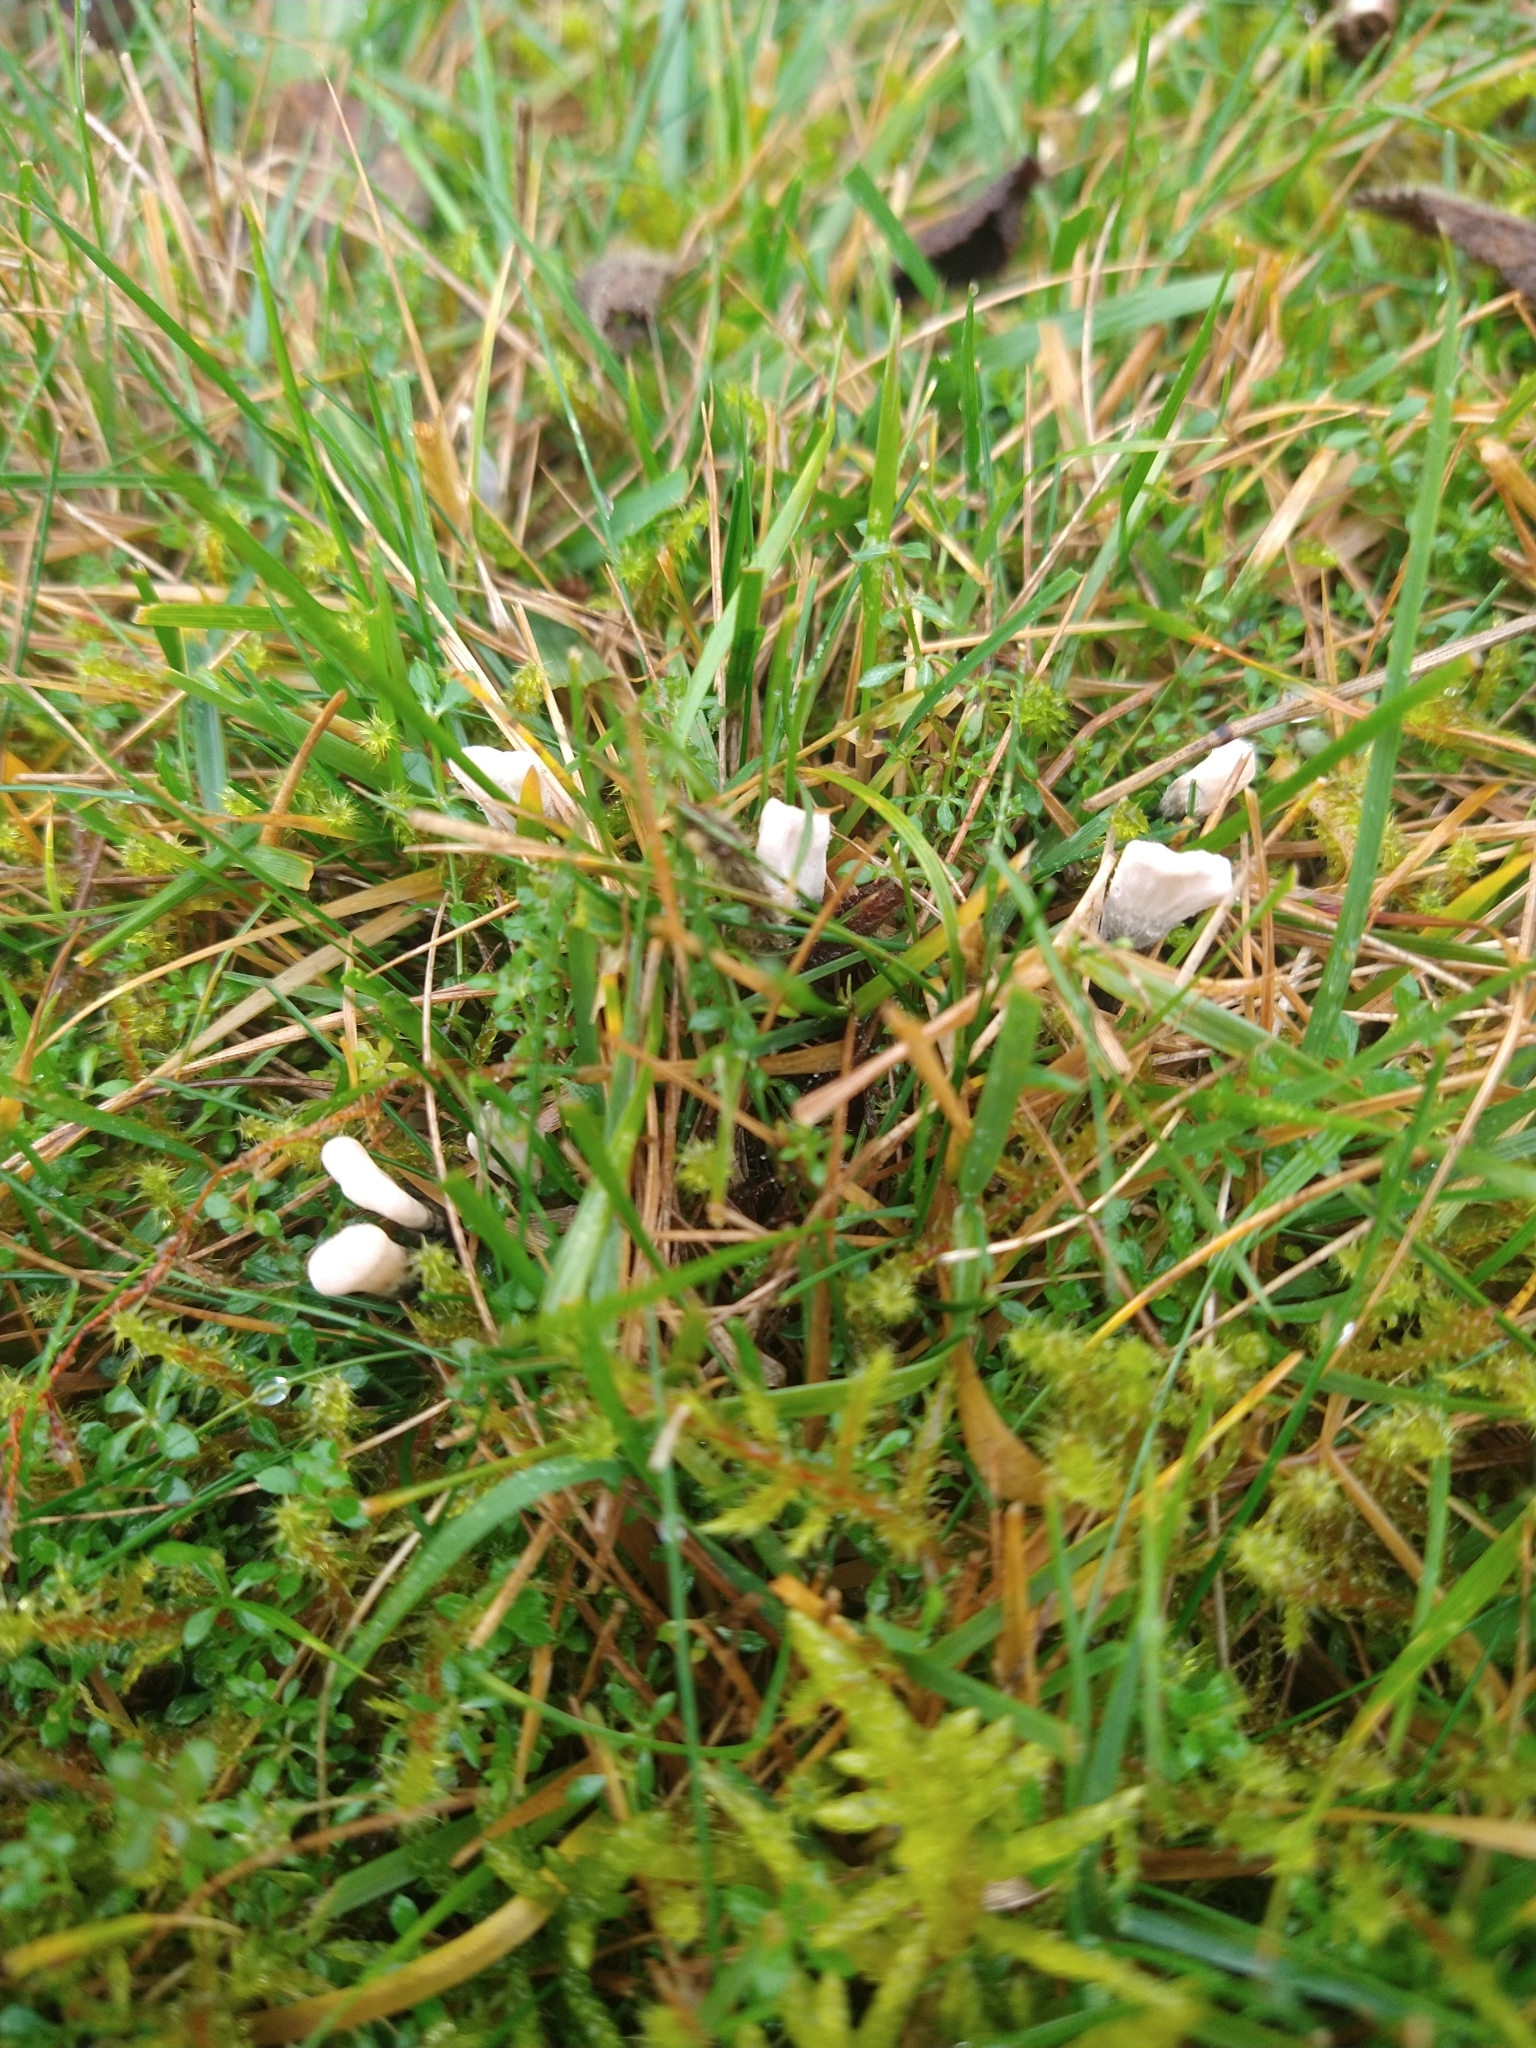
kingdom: Fungi
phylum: Ascomycota
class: Sordariomycetes
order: Xylariales
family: Xylariaceae
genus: Xylaria
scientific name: Xylaria hypoxylon
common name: Candle-snuff fungus
